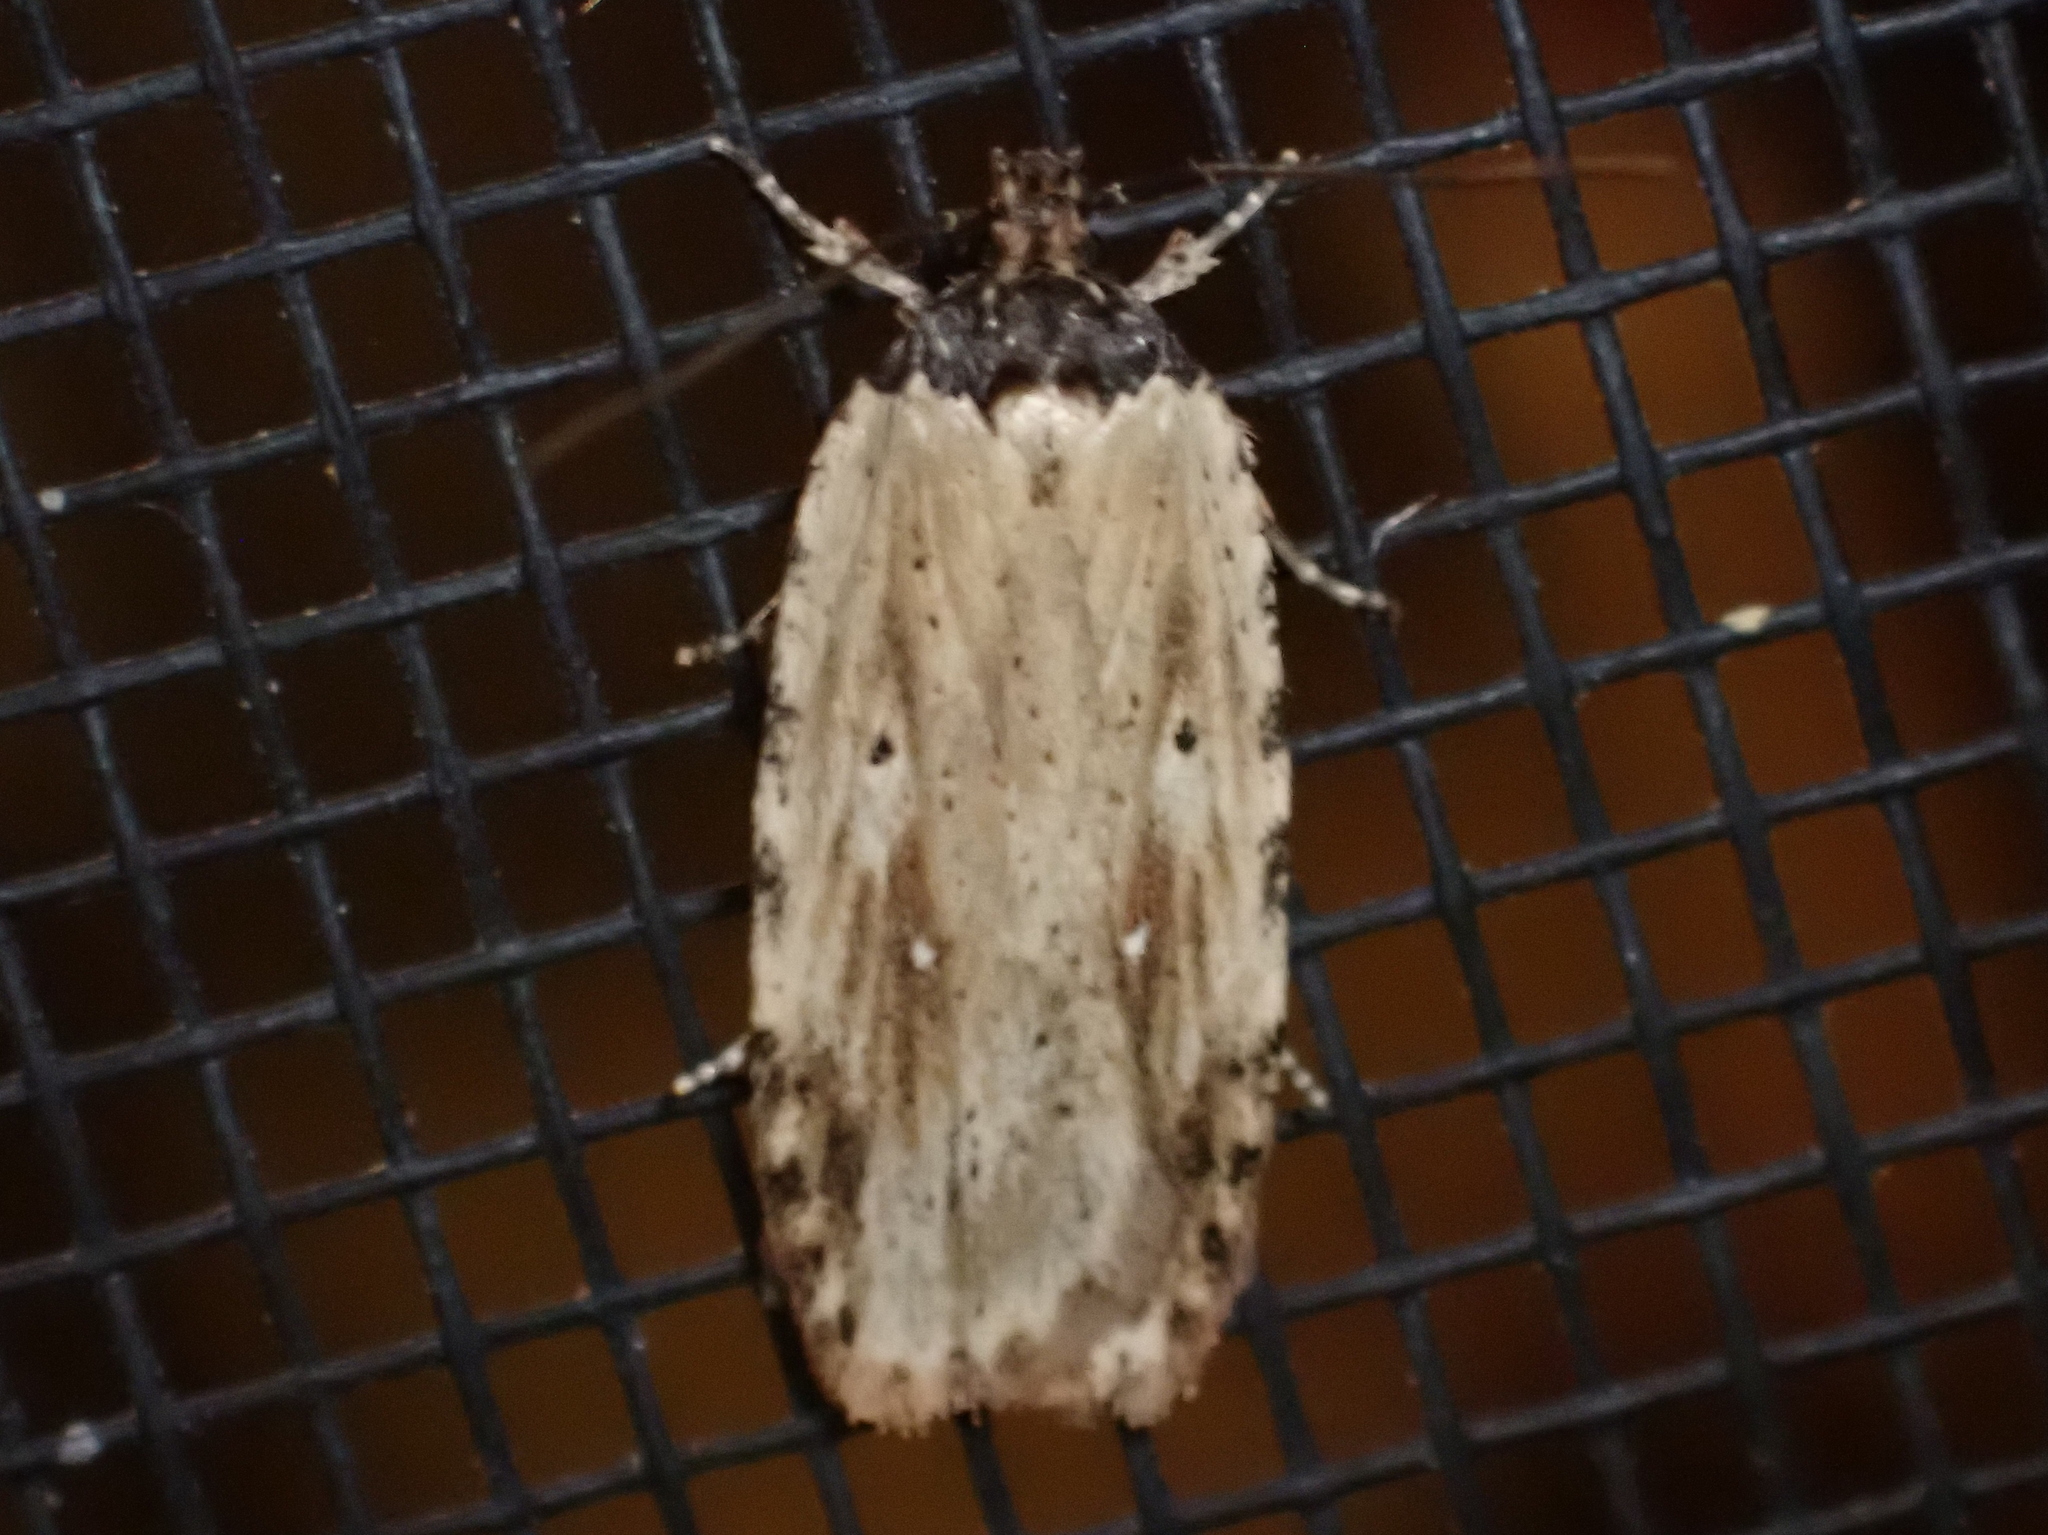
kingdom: Animalia
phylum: Arthropoda
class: Insecta
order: Lepidoptera
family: Depressariidae
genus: Agonopterix
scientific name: Agonopterix atrodorsella
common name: Beggartick leaffolder
